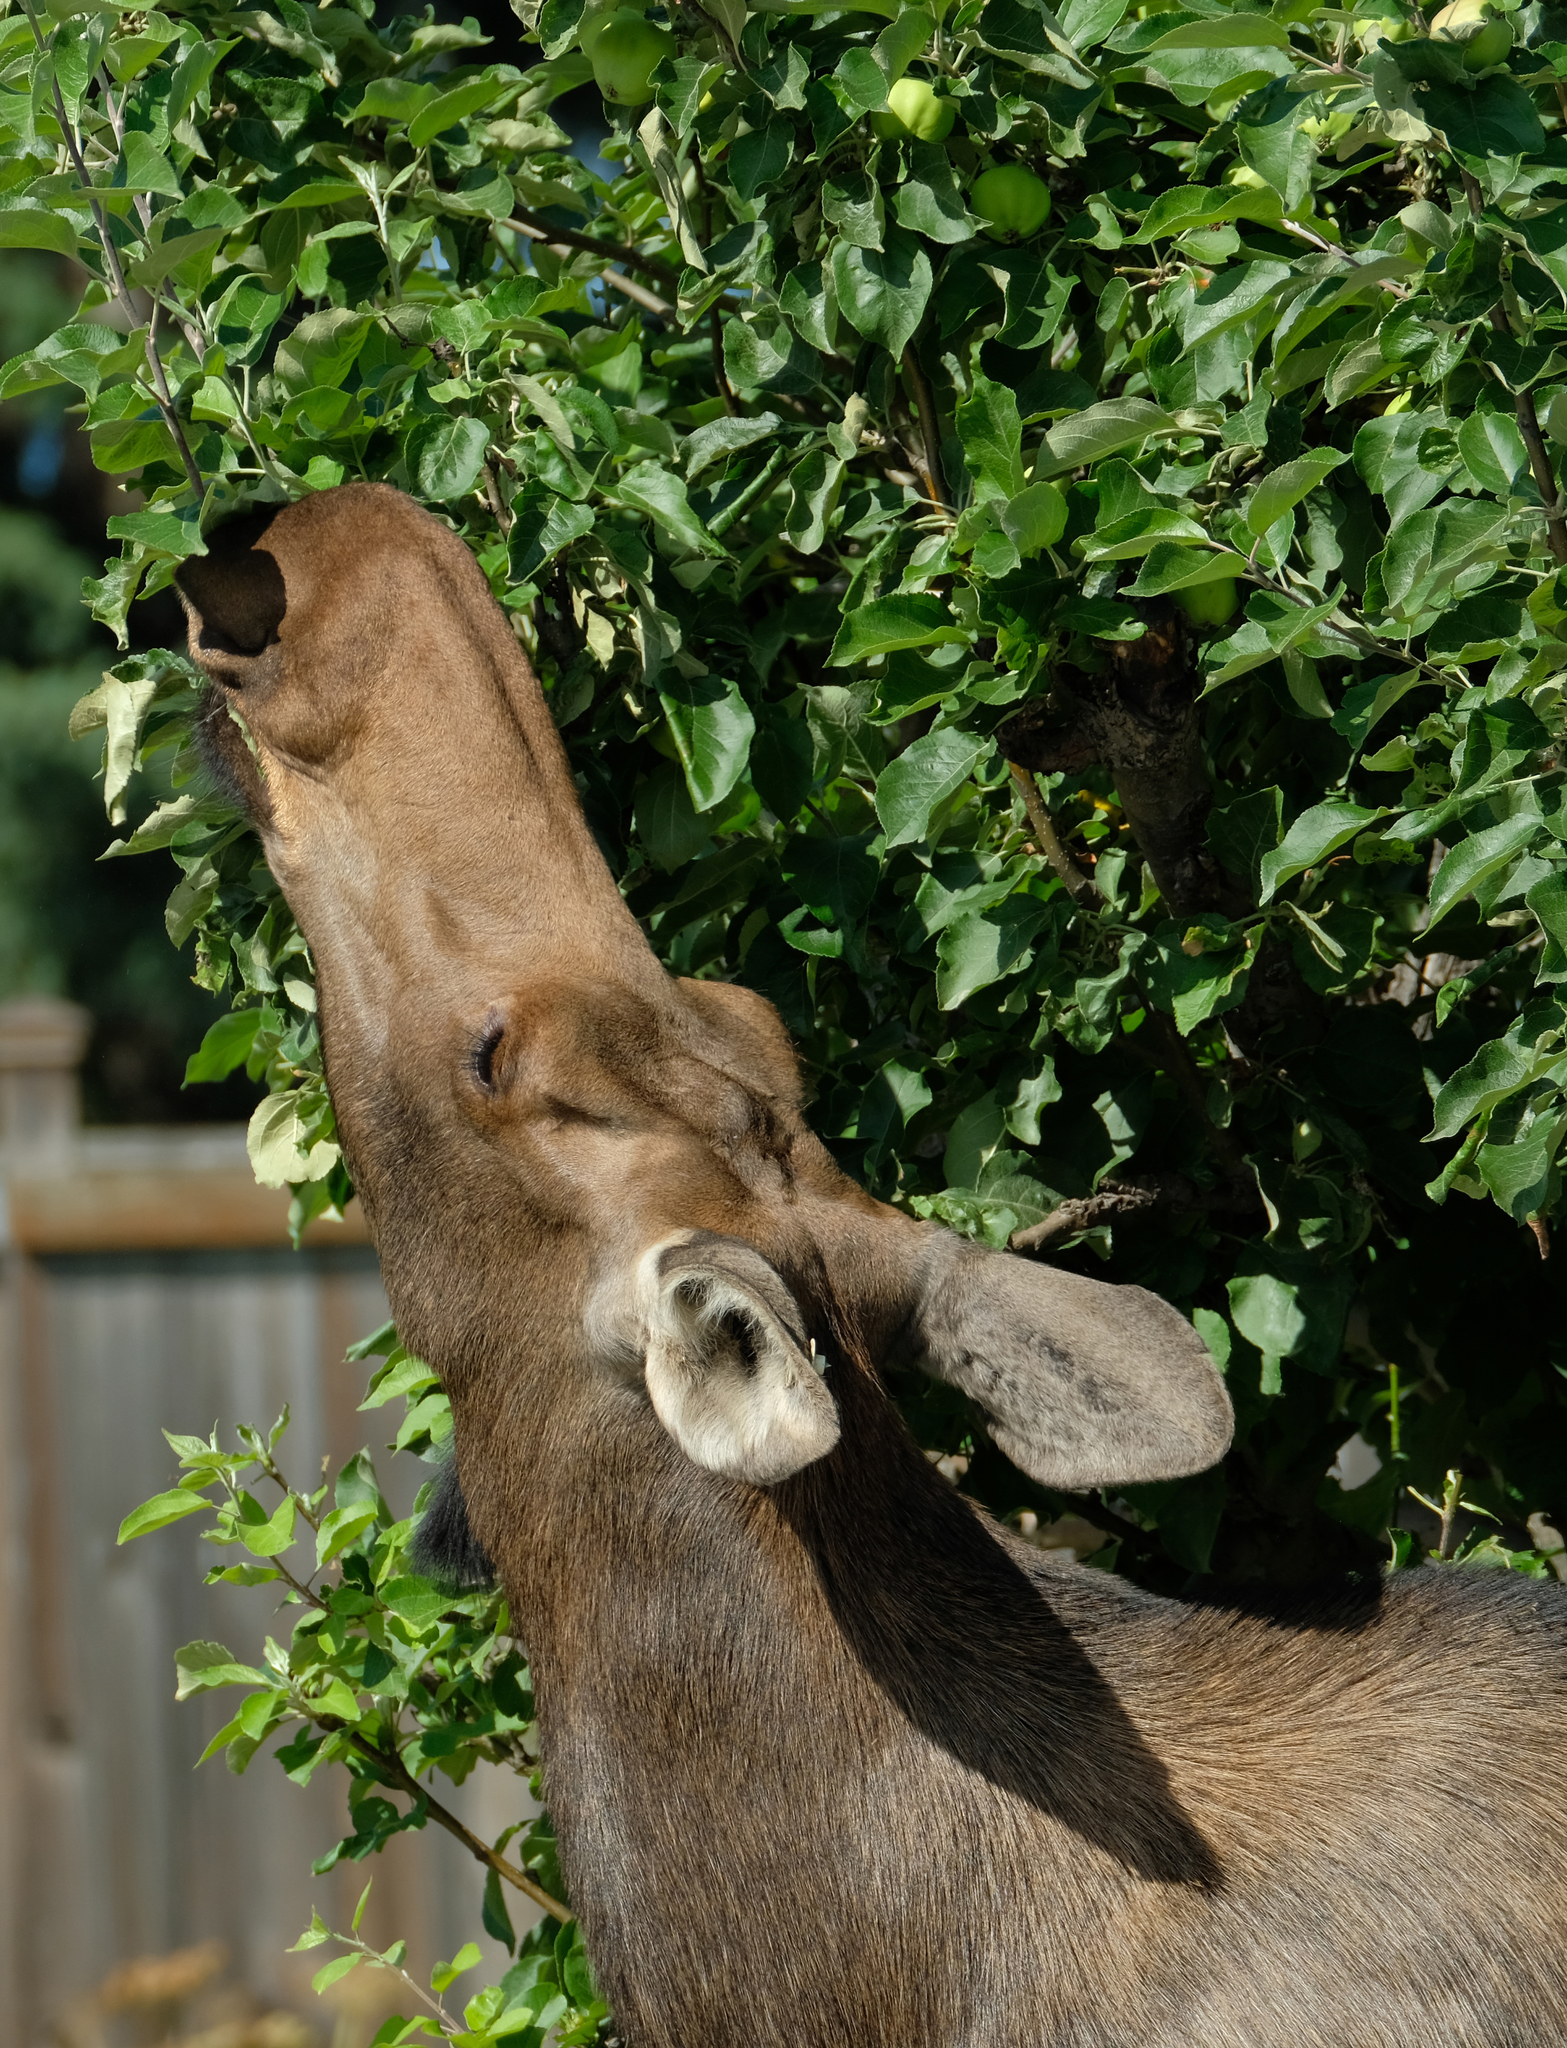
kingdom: Animalia
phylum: Chordata
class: Mammalia
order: Artiodactyla
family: Cervidae
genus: Alces
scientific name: Alces alces
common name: Moose
